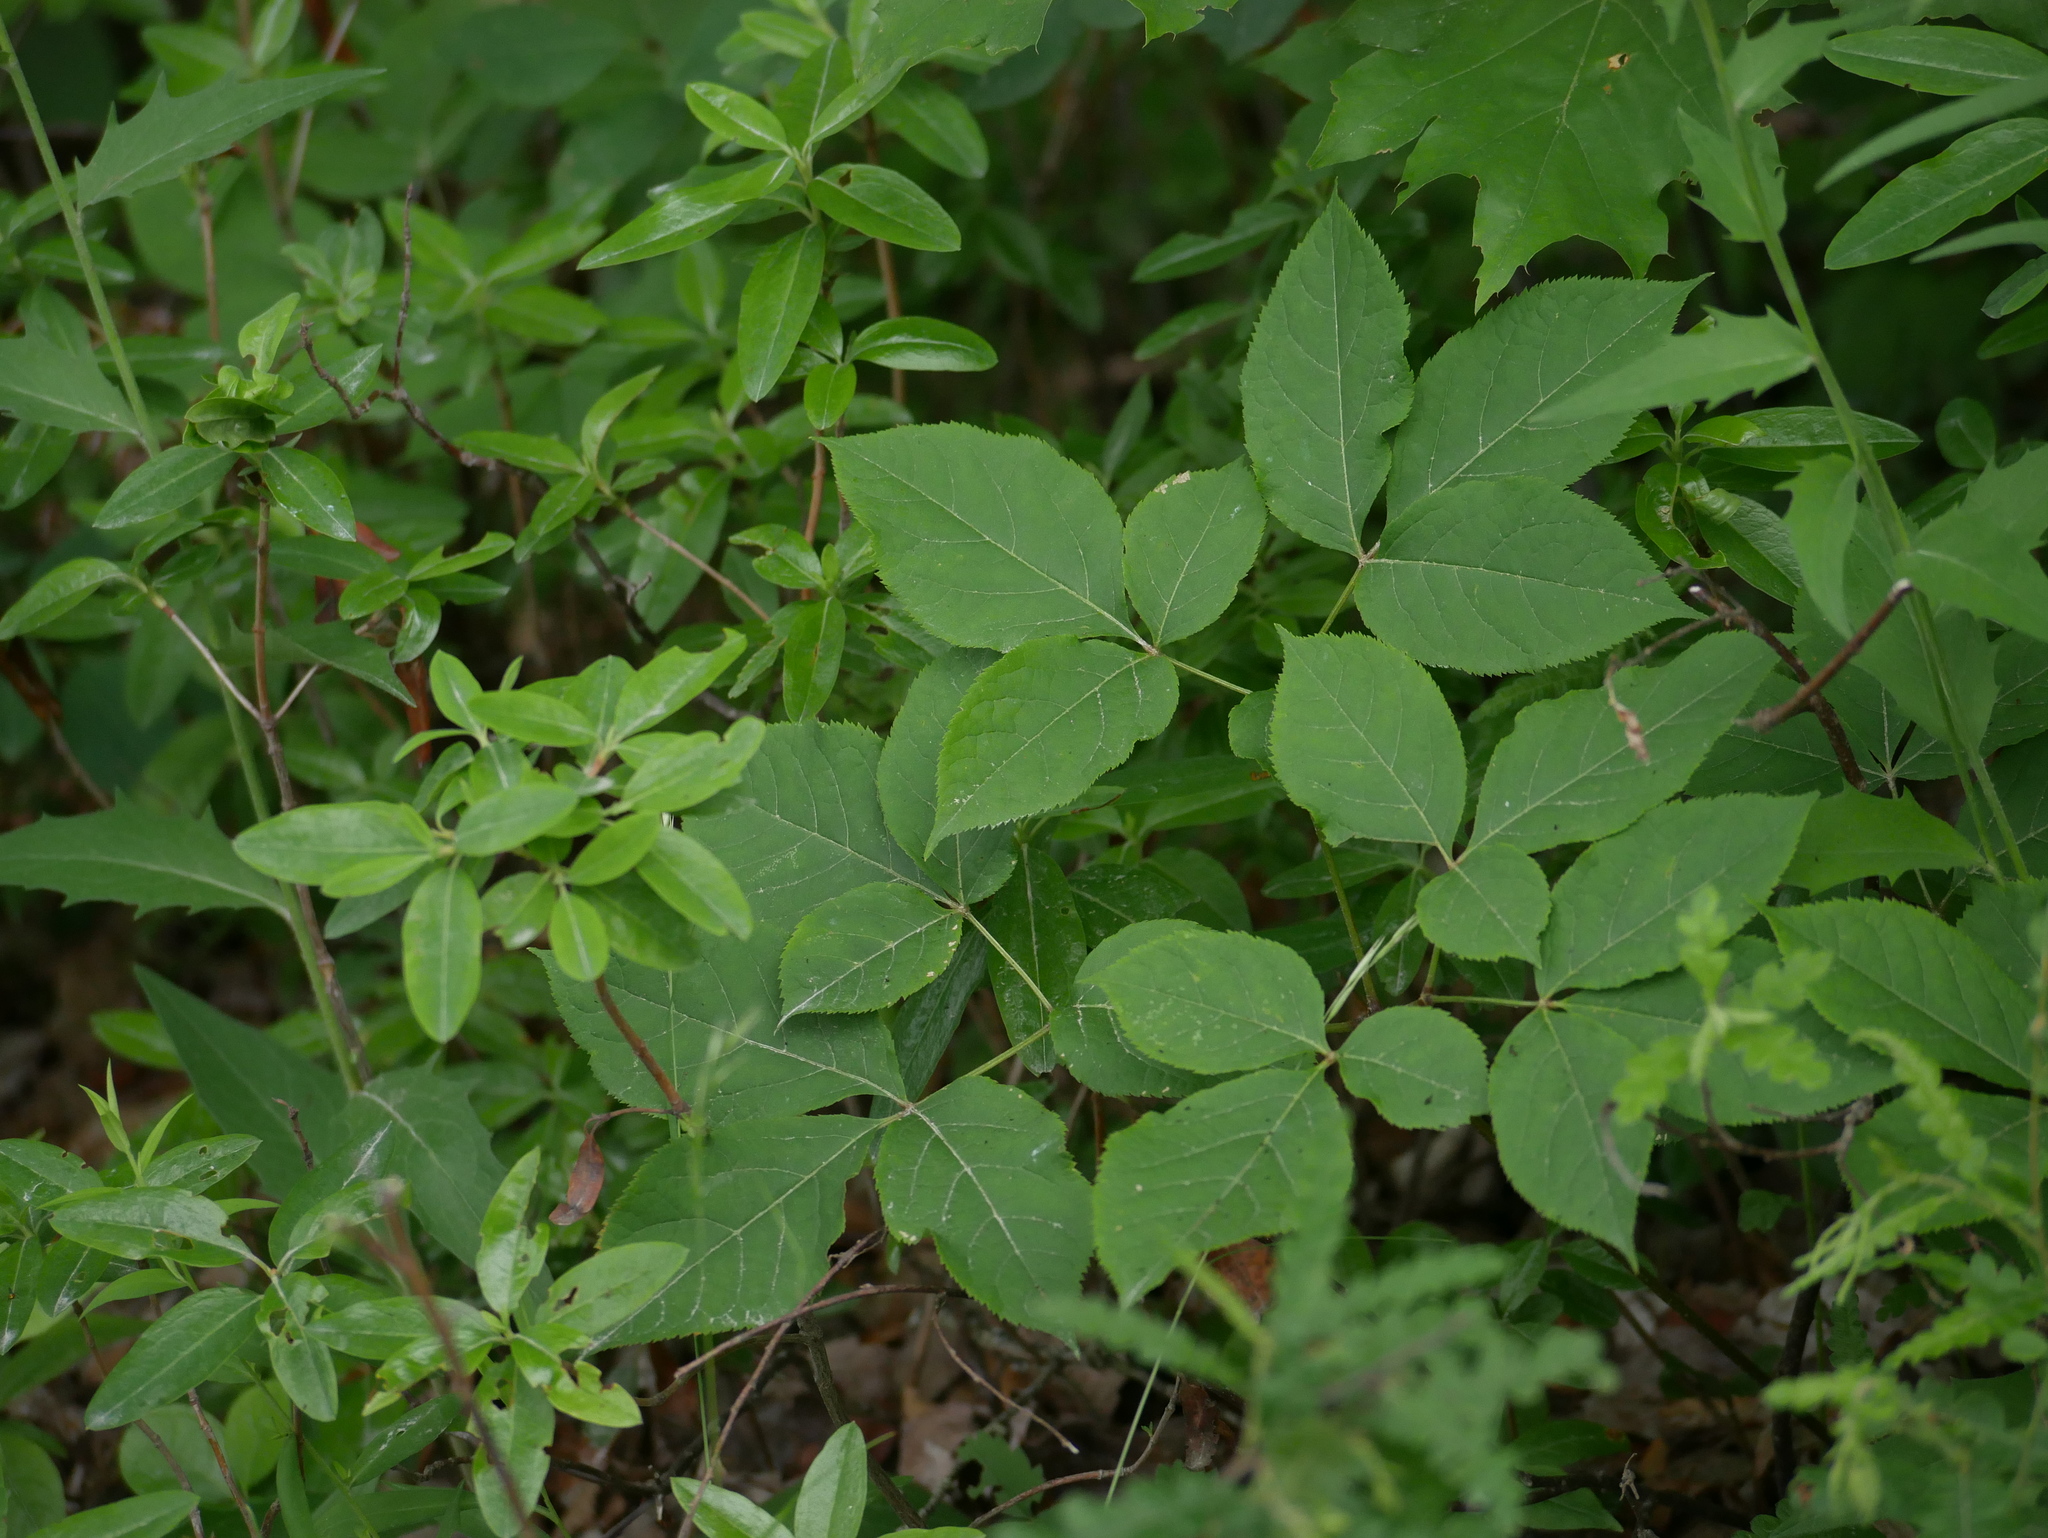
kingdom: Plantae
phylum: Tracheophyta
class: Magnoliopsida
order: Apiales
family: Araliaceae
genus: Aralia
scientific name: Aralia nudicaulis
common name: Wild sarsaparilla
